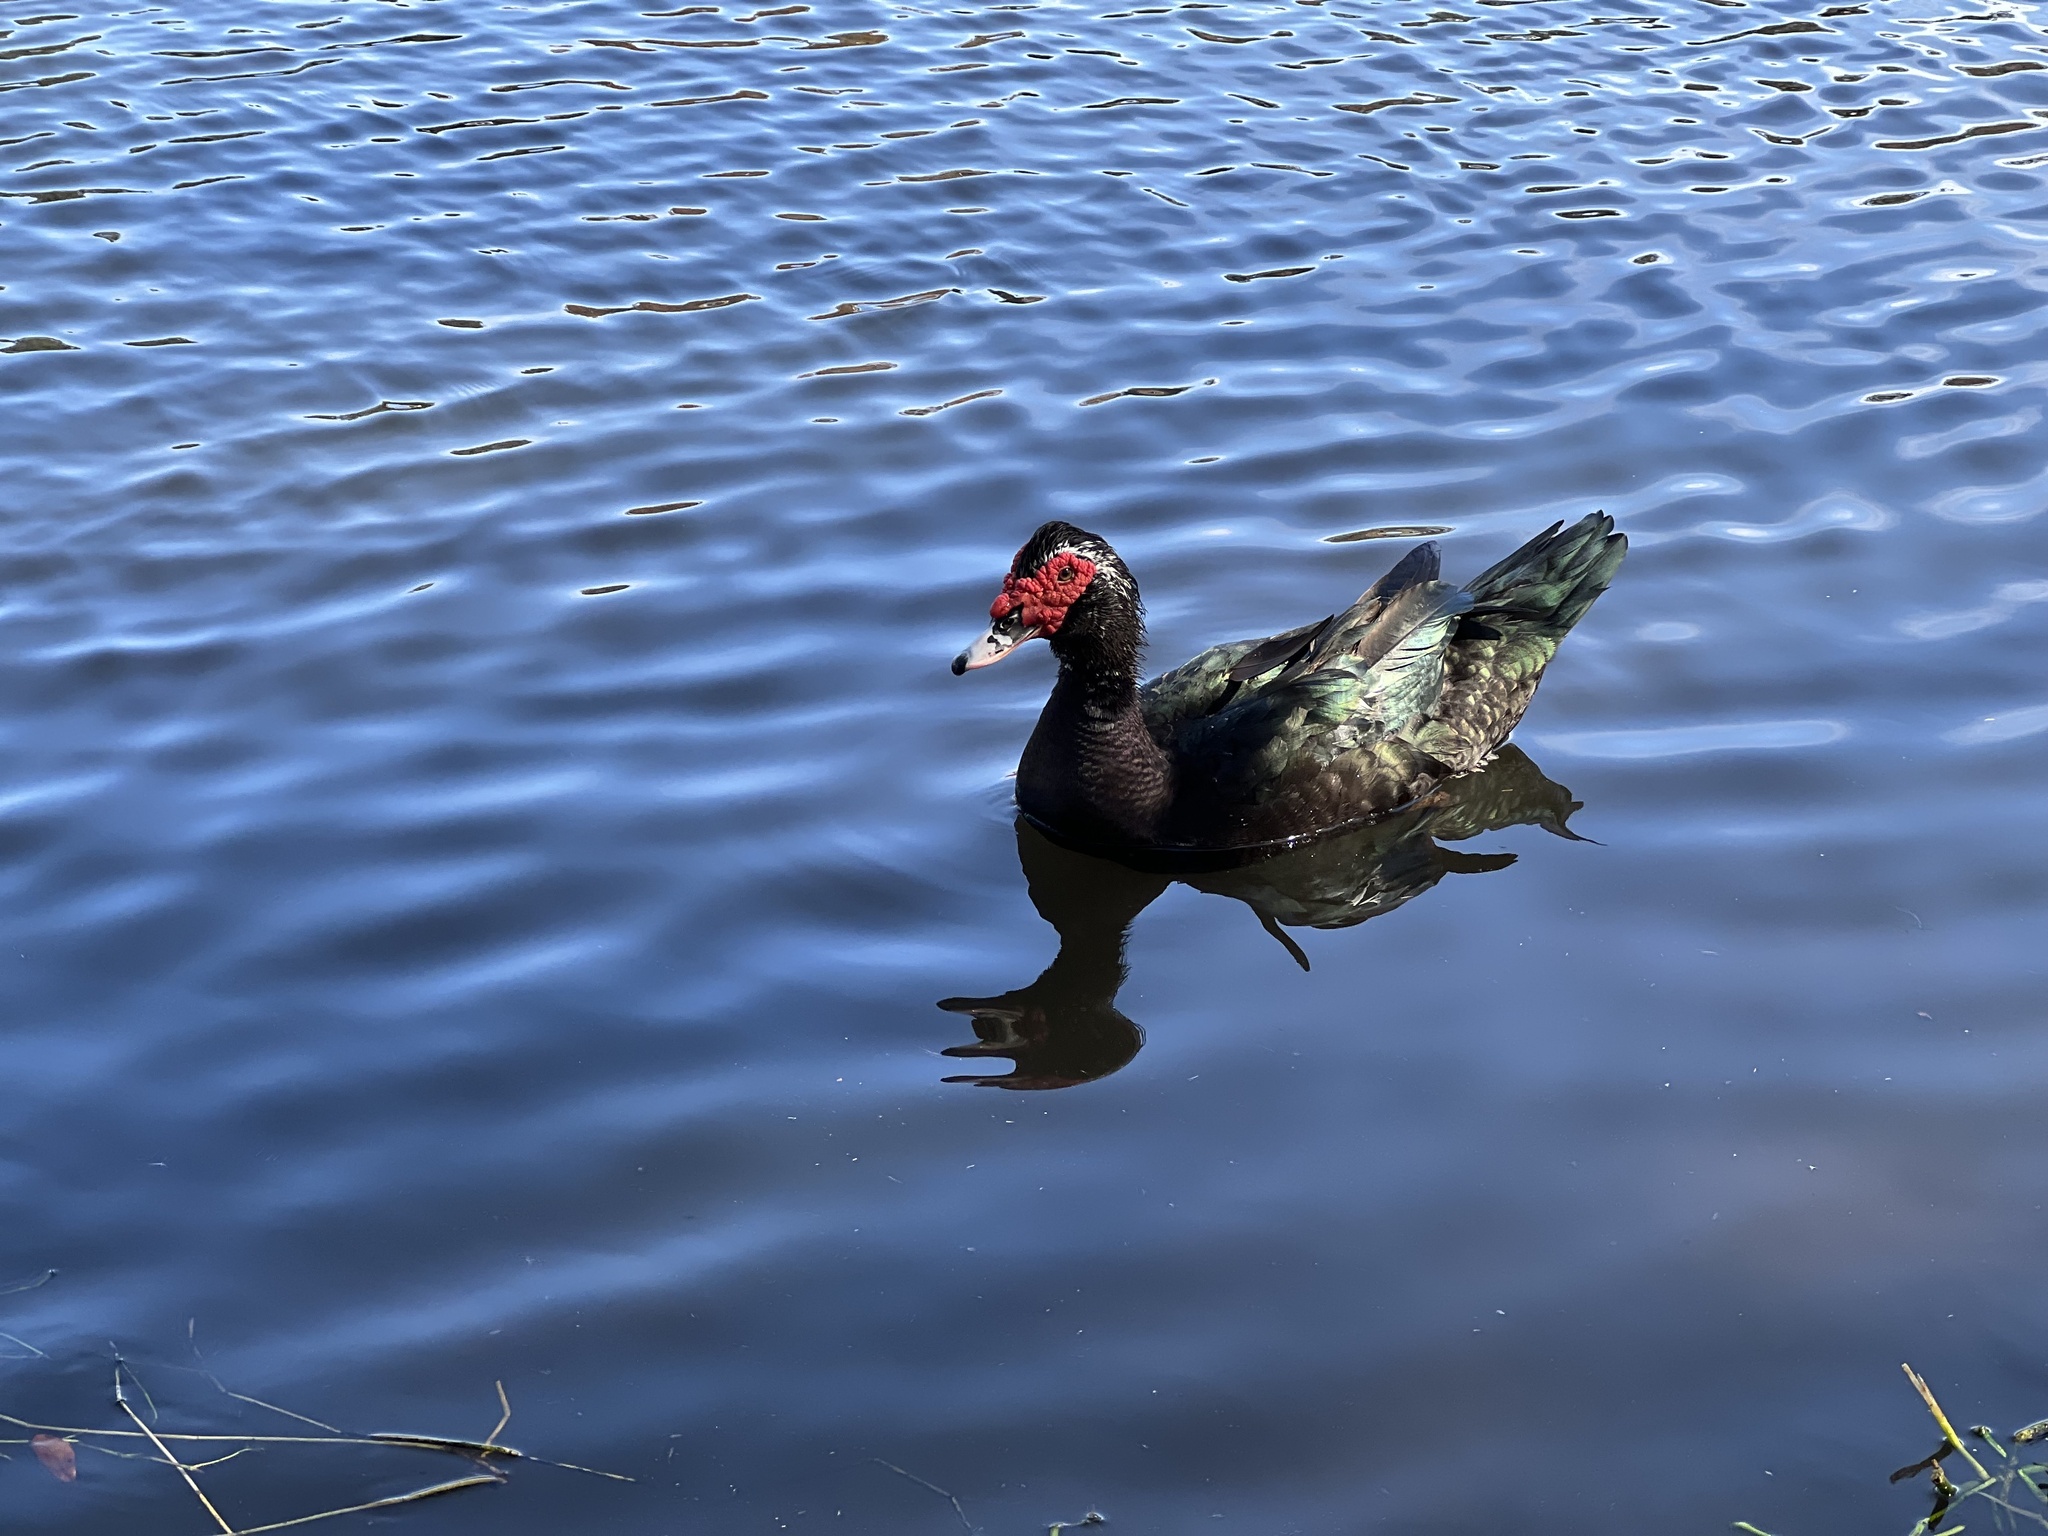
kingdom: Animalia
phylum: Chordata
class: Aves
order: Anseriformes
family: Anatidae
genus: Cairina
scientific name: Cairina moschata
